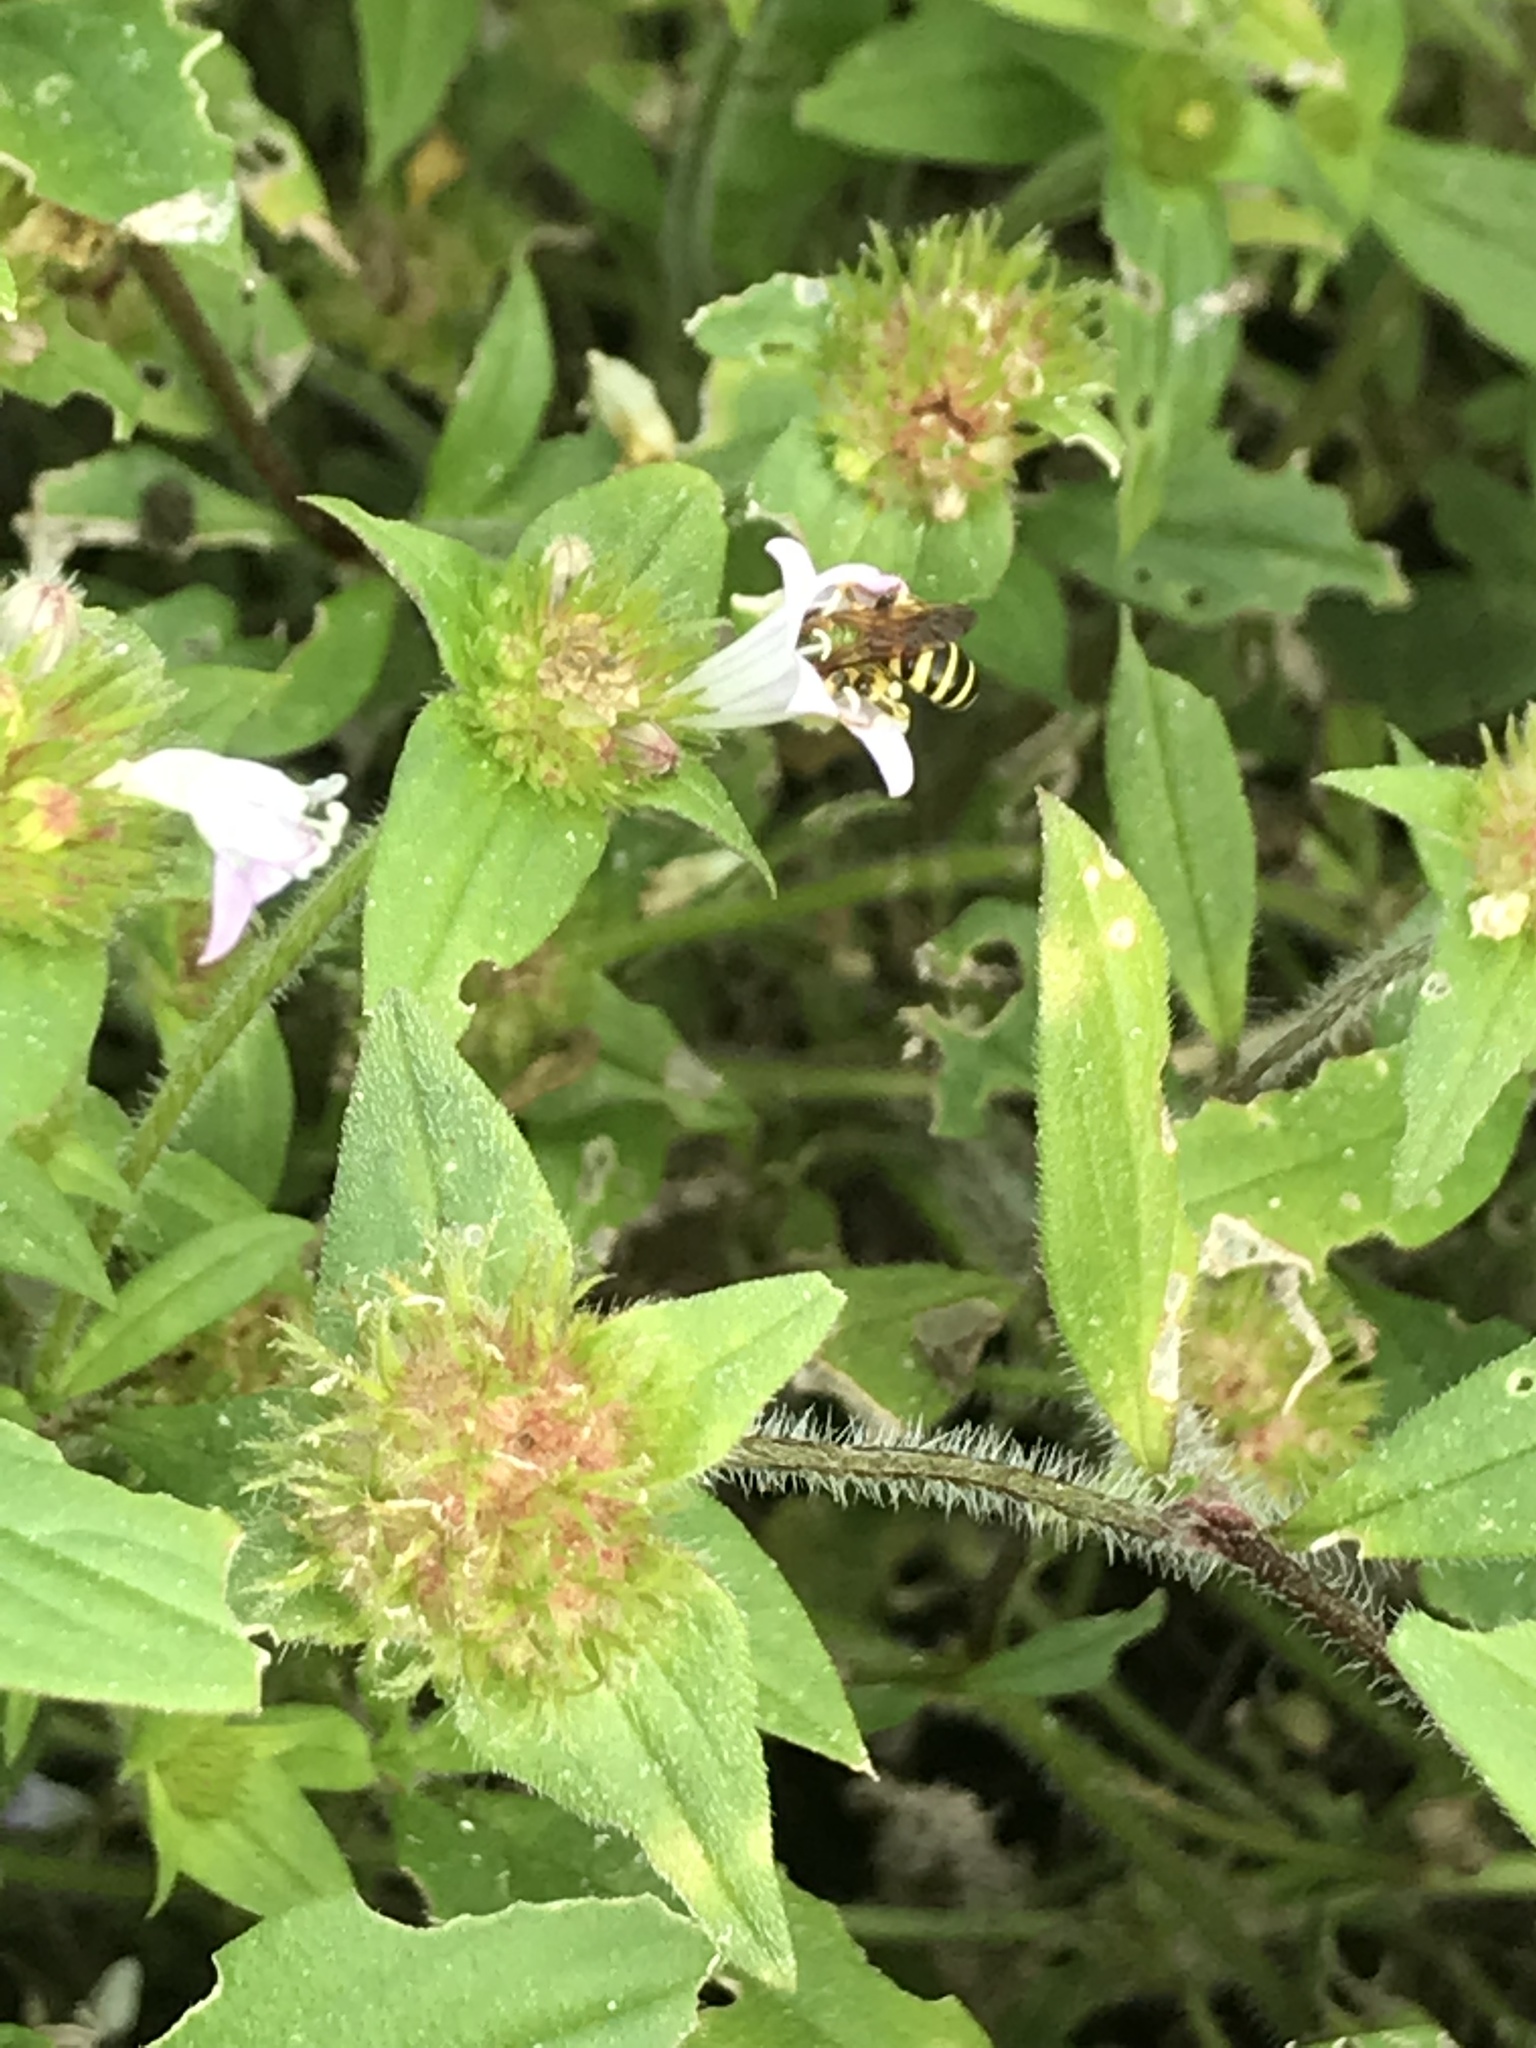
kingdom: Animalia
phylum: Arthropoda
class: Insecta
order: Hymenoptera
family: Halictidae
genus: Agapostemon
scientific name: Agapostemon splendens
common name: Brown-winged striped sweat bee
